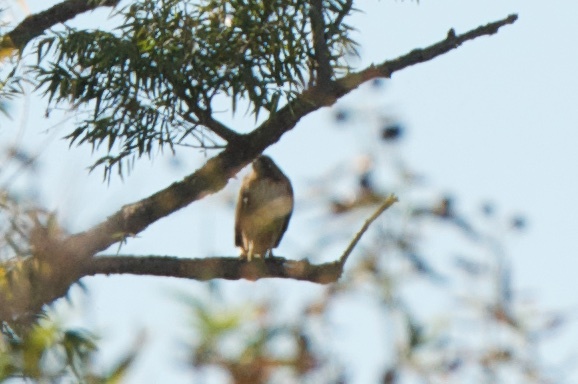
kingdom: Animalia
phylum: Chordata
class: Aves
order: Accipitriformes
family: Accipitridae
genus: Buteo
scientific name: Buteo jamaicensis
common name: Red-tailed hawk
